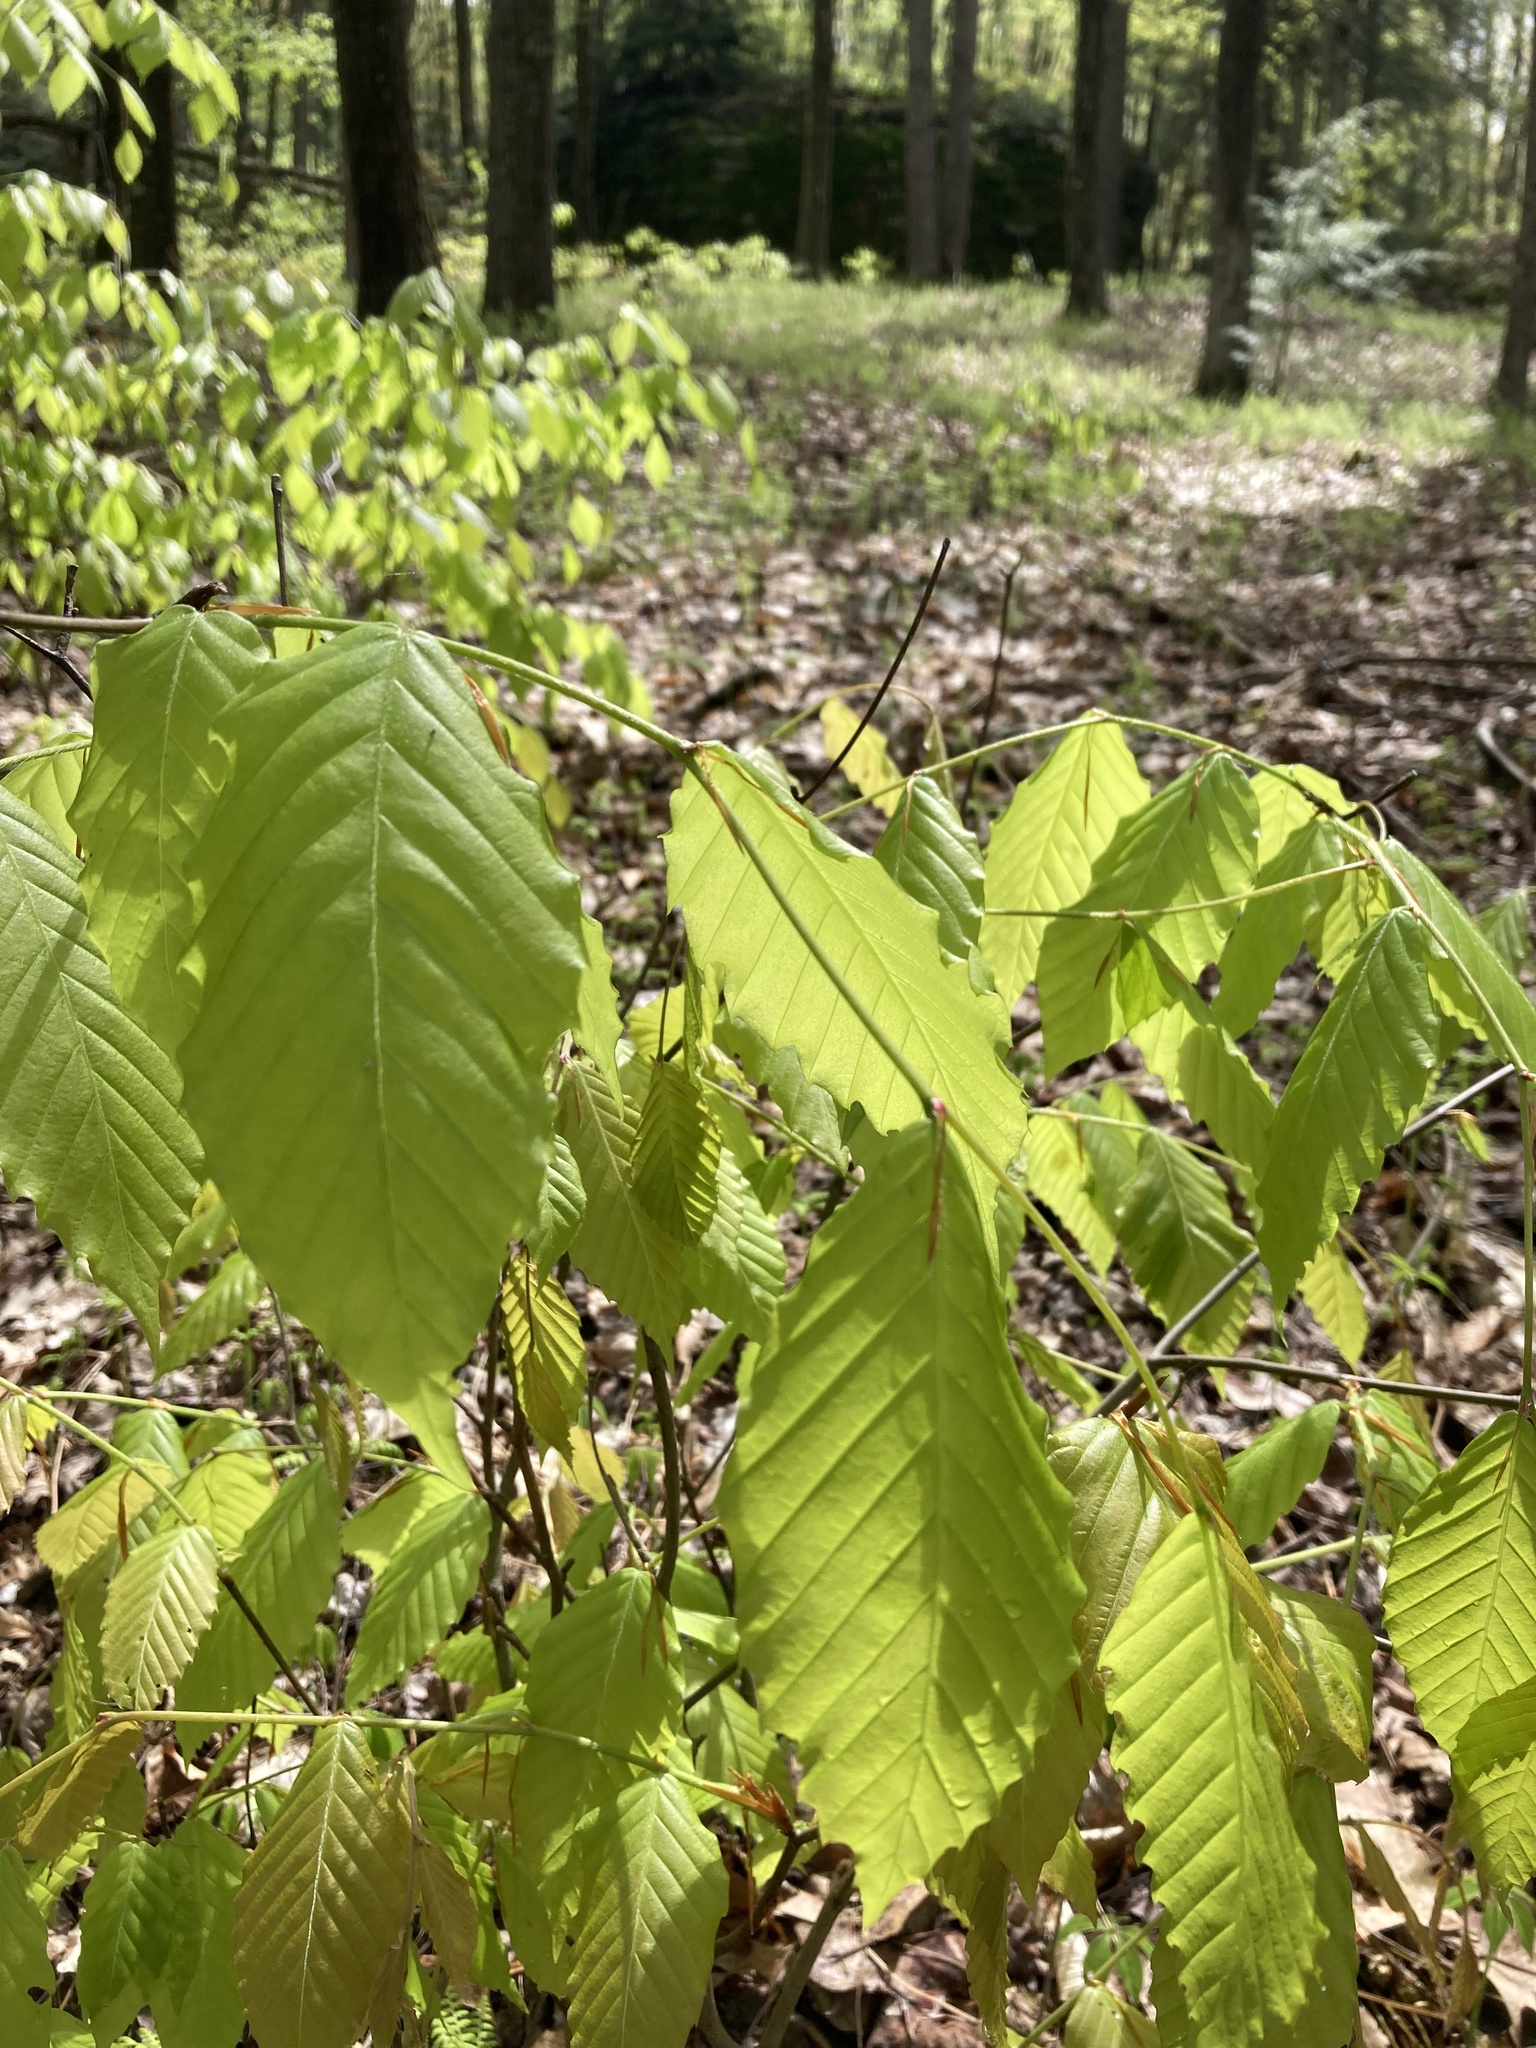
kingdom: Plantae
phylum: Tracheophyta
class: Magnoliopsida
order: Fagales
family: Fagaceae
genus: Fagus
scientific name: Fagus grandifolia
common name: American beech
